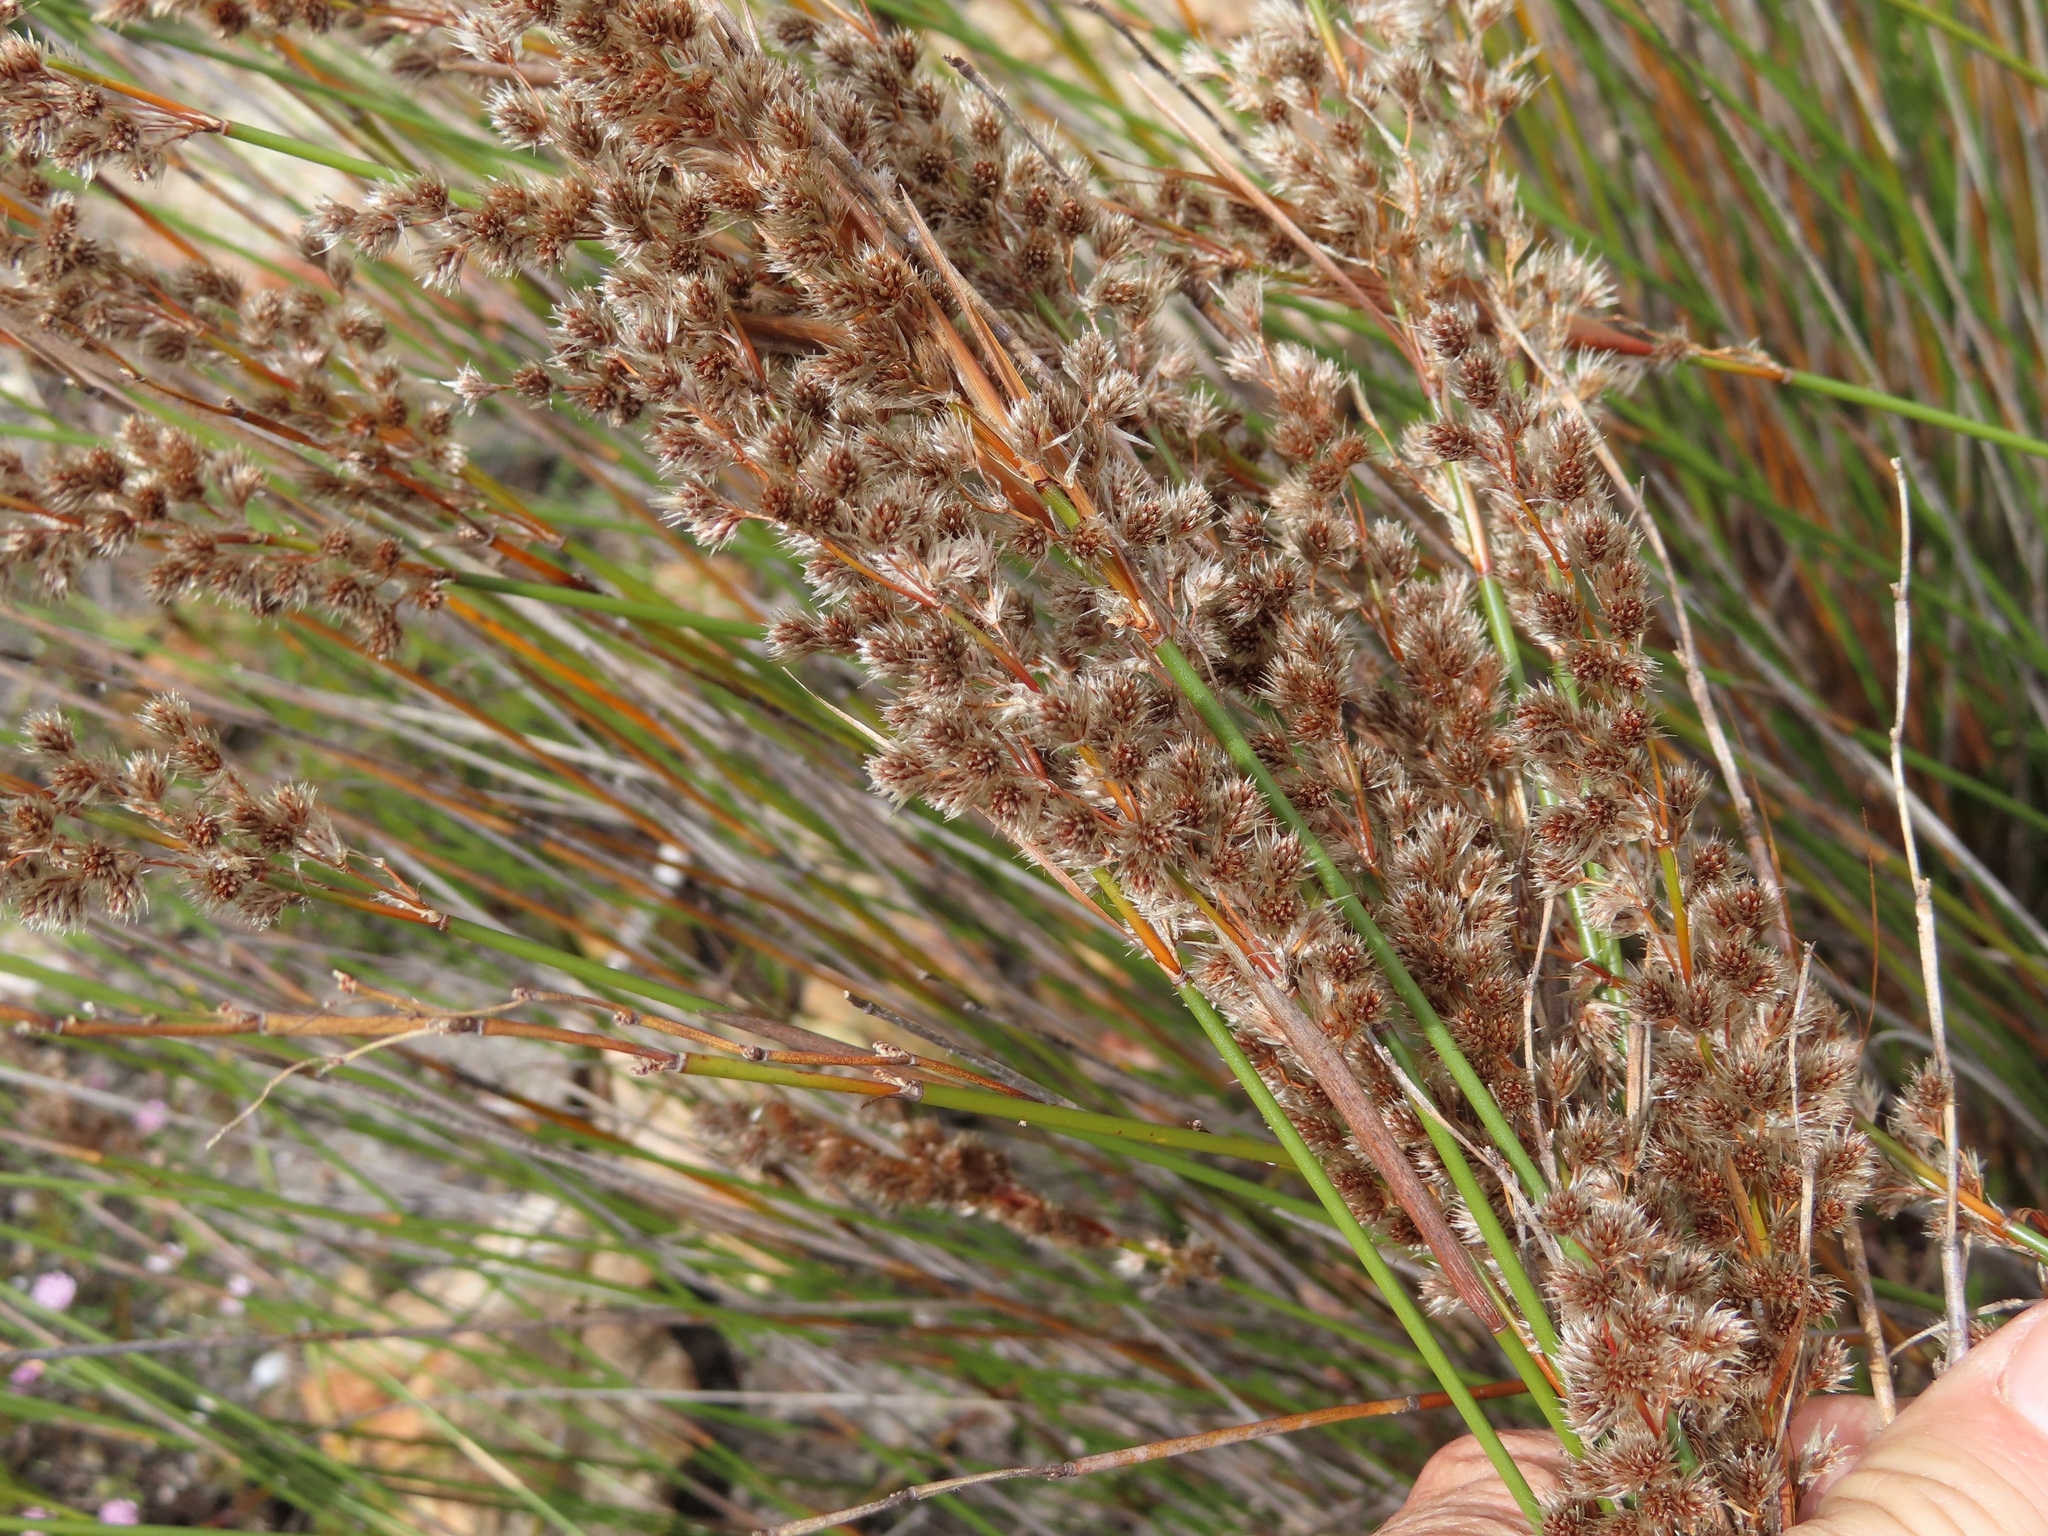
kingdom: Plantae
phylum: Tracheophyta
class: Liliopsida
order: Poales
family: Restionaceae
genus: Hypodiscus
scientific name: Hypodiscus argenteus
